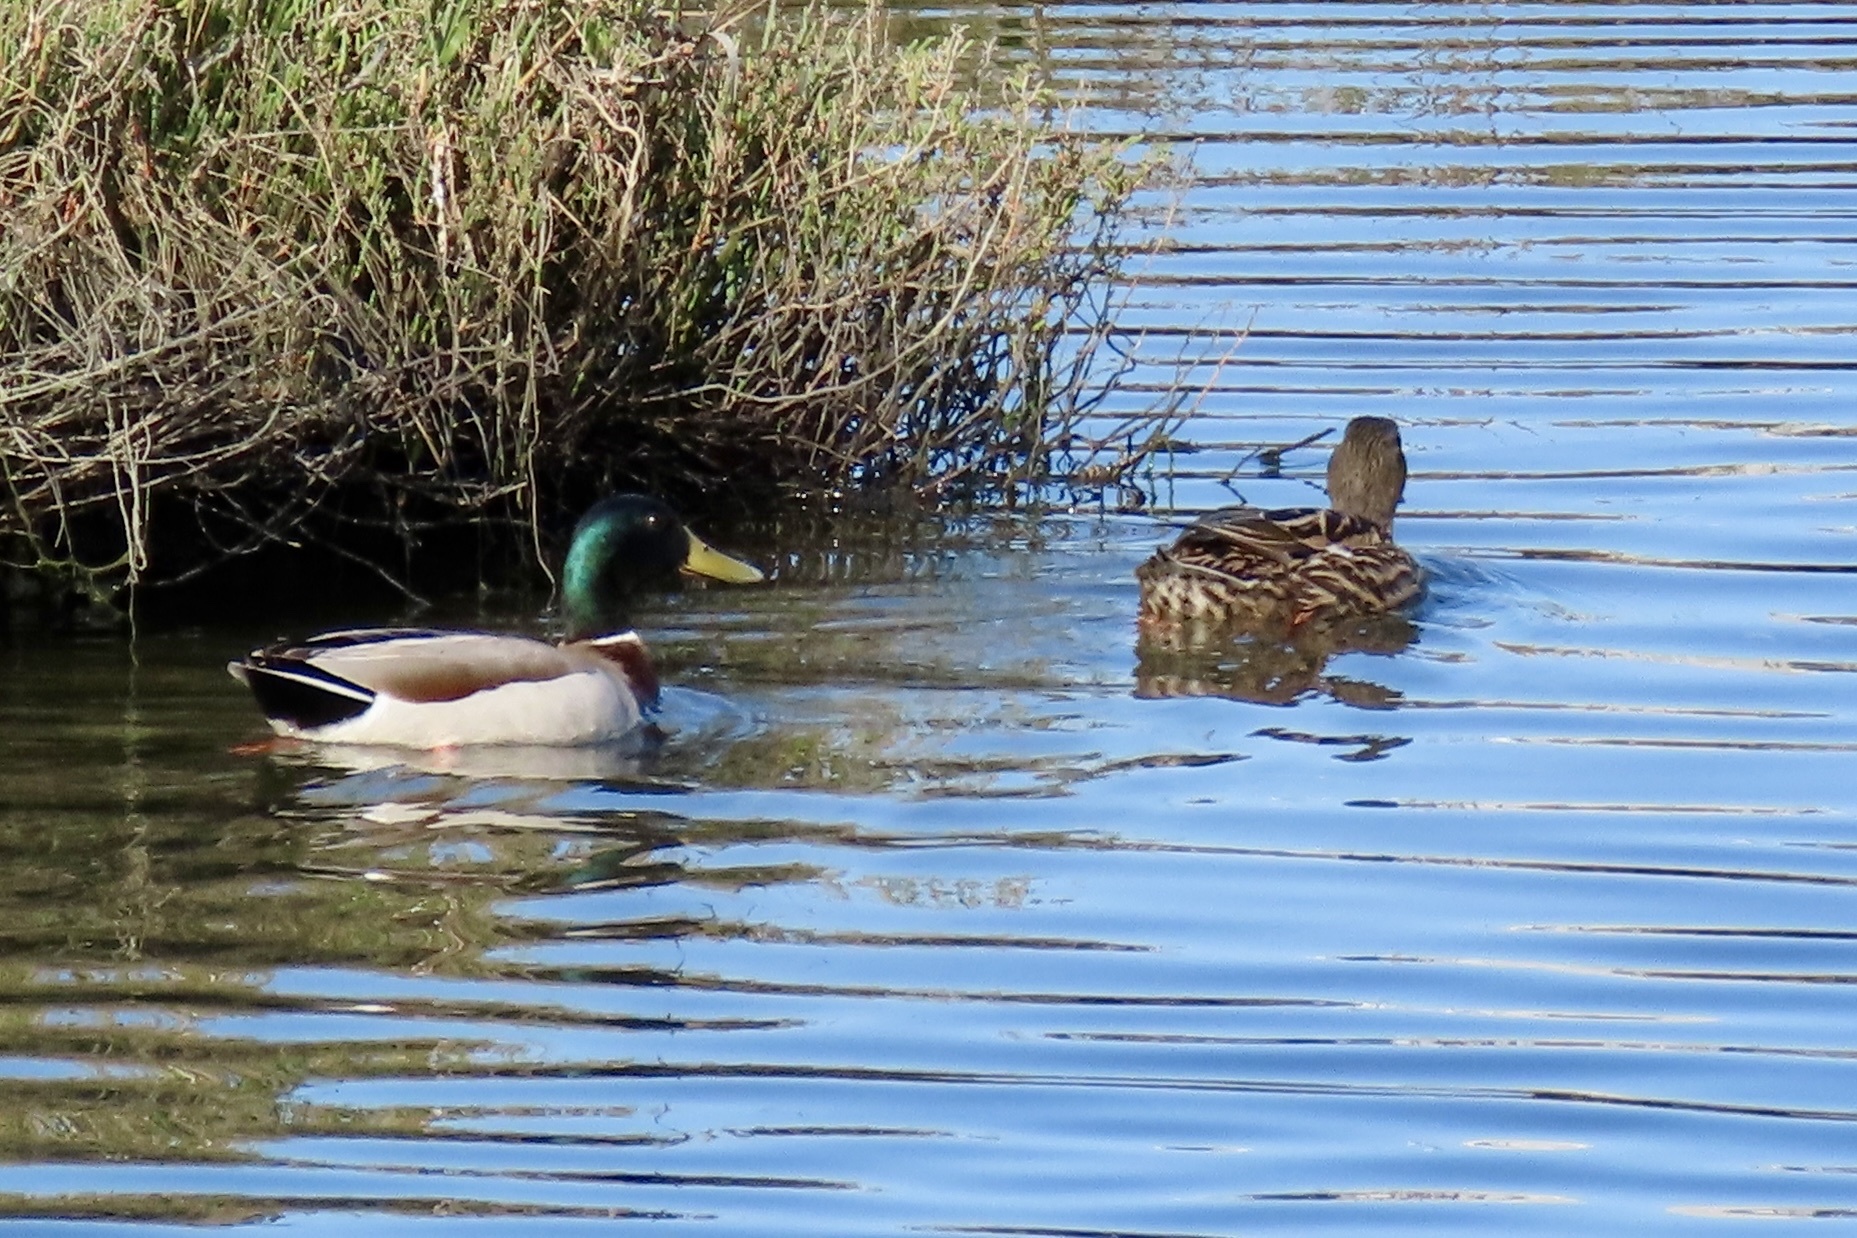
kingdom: Animalia
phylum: Chordata
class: Aves
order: Anseriformes
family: Anatidae
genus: Anas
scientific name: Anas platyrhynchos
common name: Mallard
